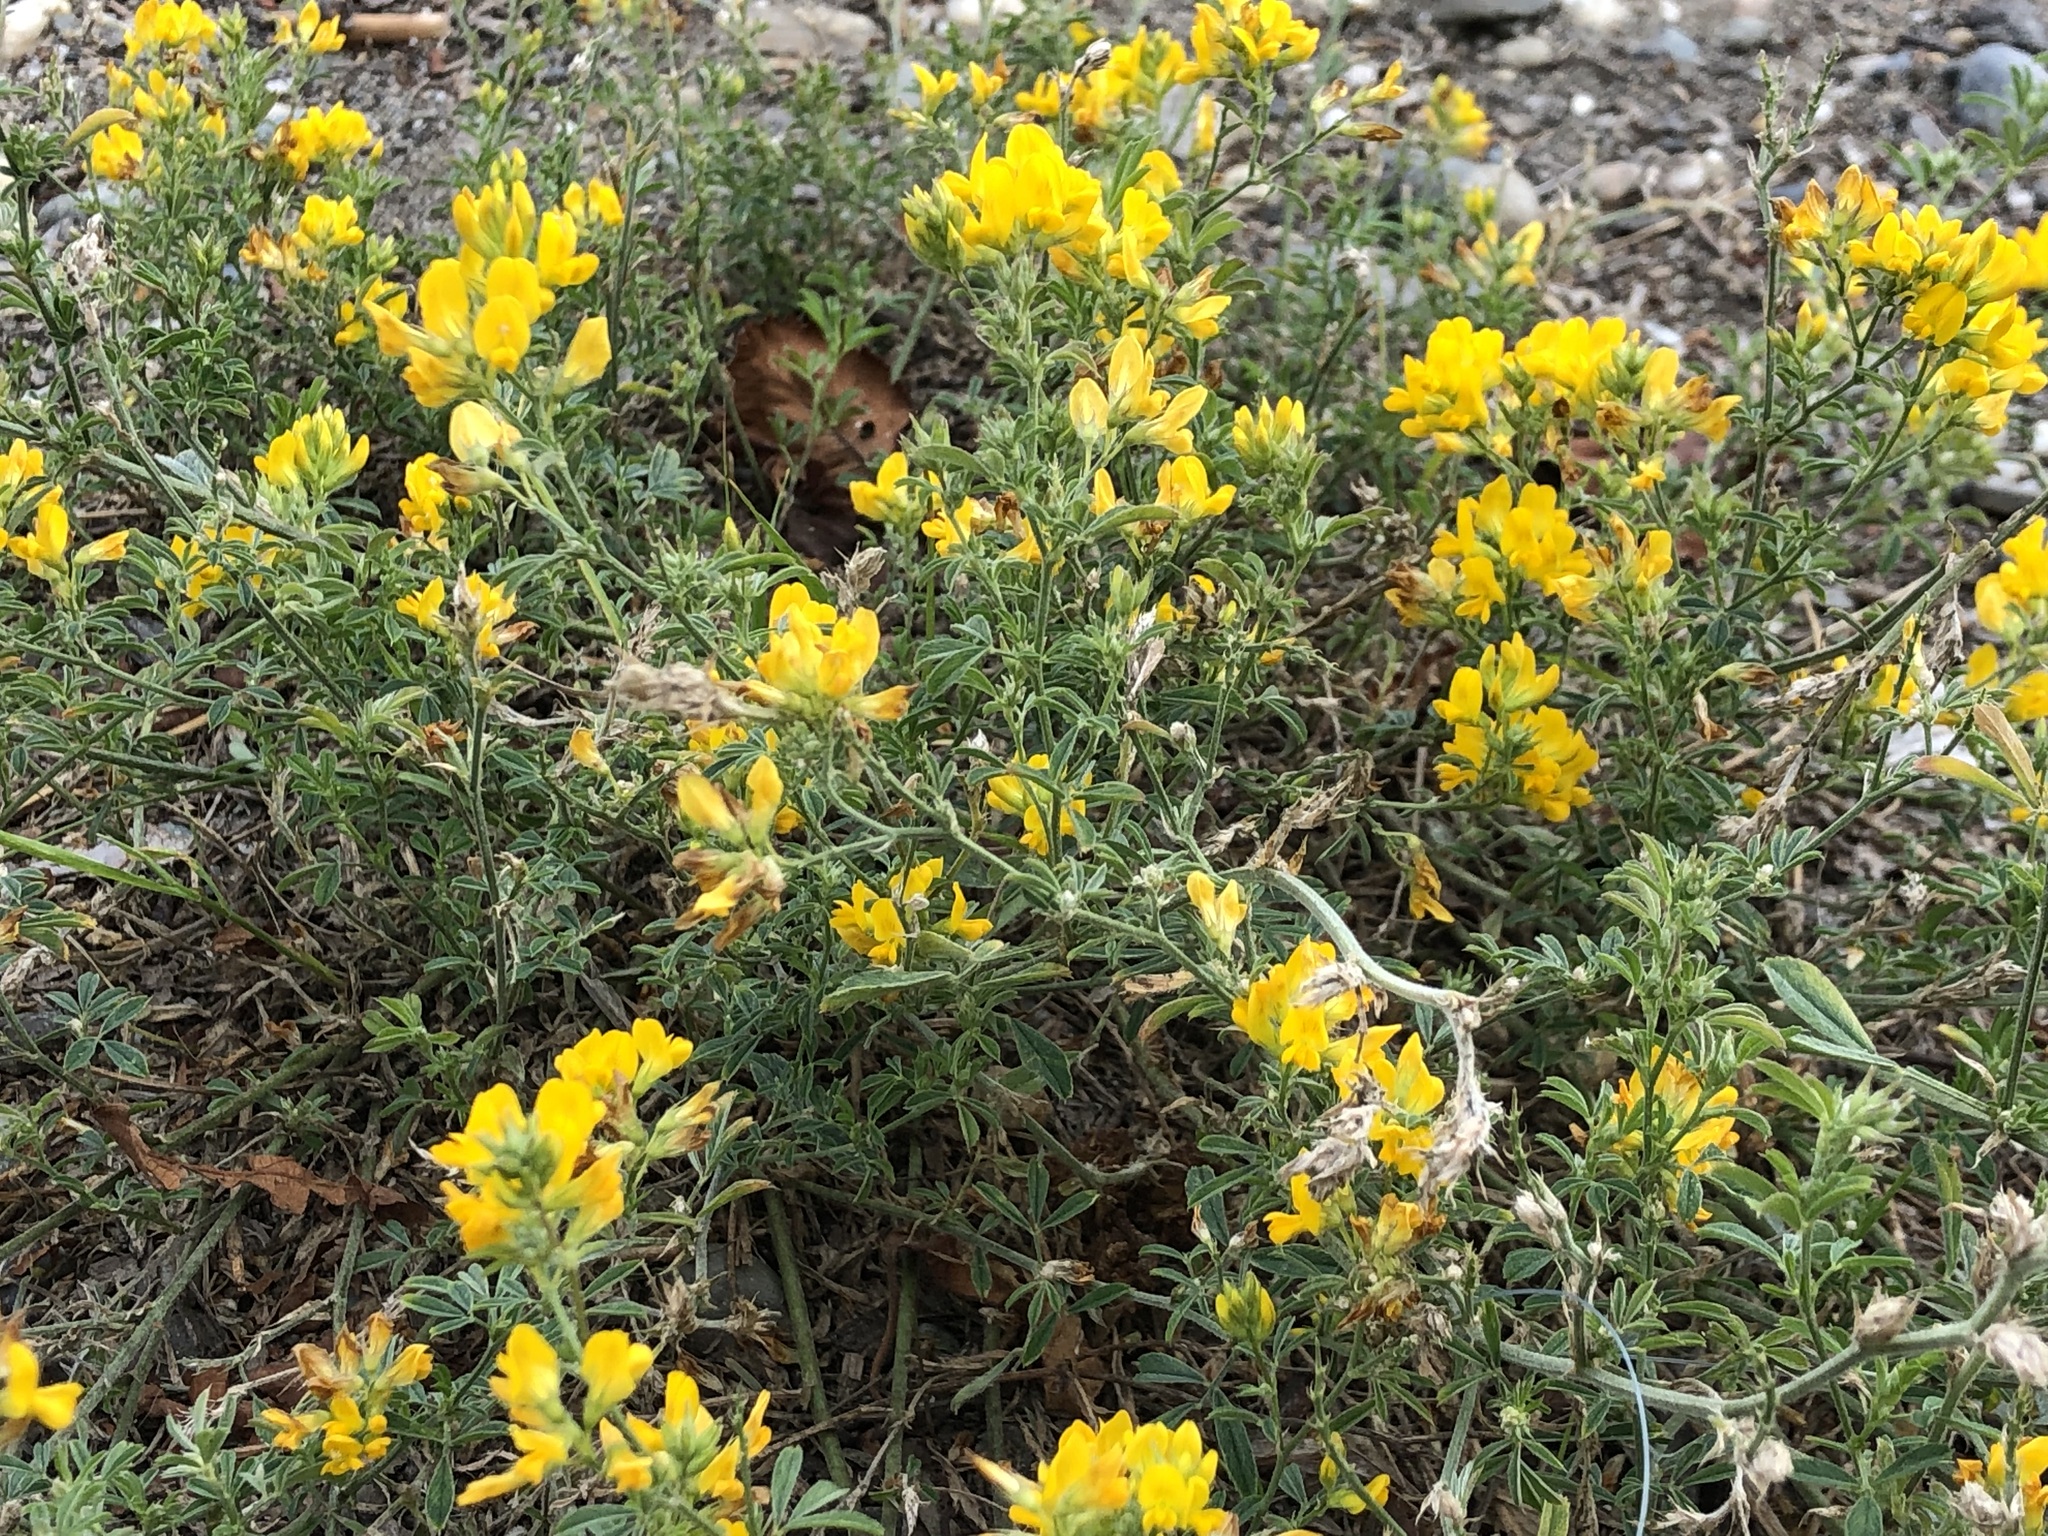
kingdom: Plantae
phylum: Tracheophyta
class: Magnoliopsida
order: Fabales
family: Fabaceae
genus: Medicago
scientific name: Medicago falcata
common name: Sickle medick
